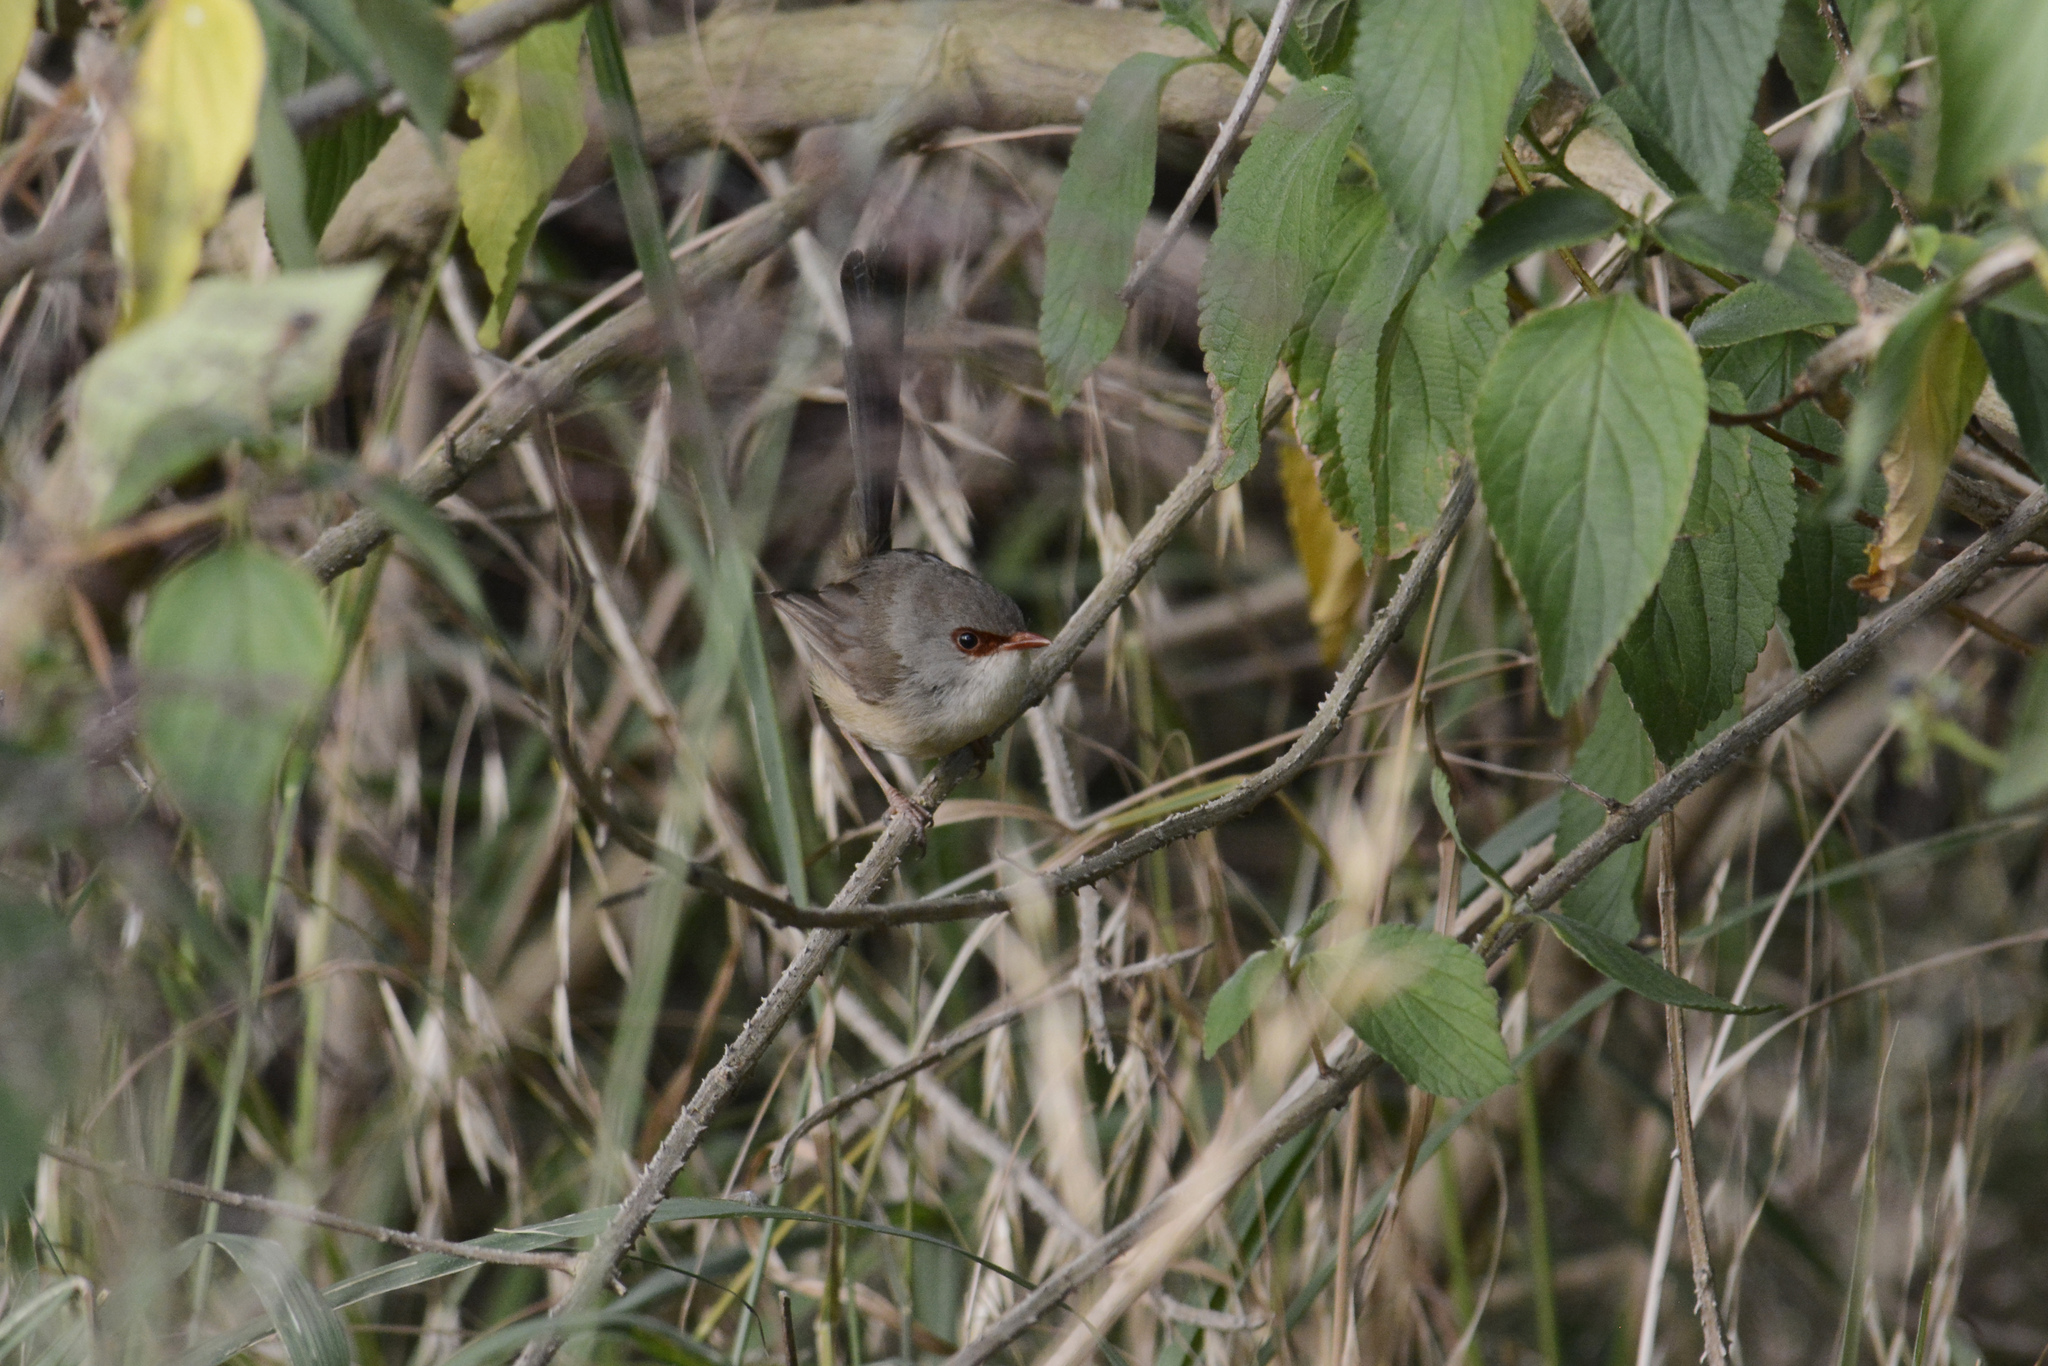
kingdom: Animalia
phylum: Chordata
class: Aves
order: Passeriformes
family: Maluridae
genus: Malurus
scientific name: Malurus lamberti
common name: Variegated fairywren
